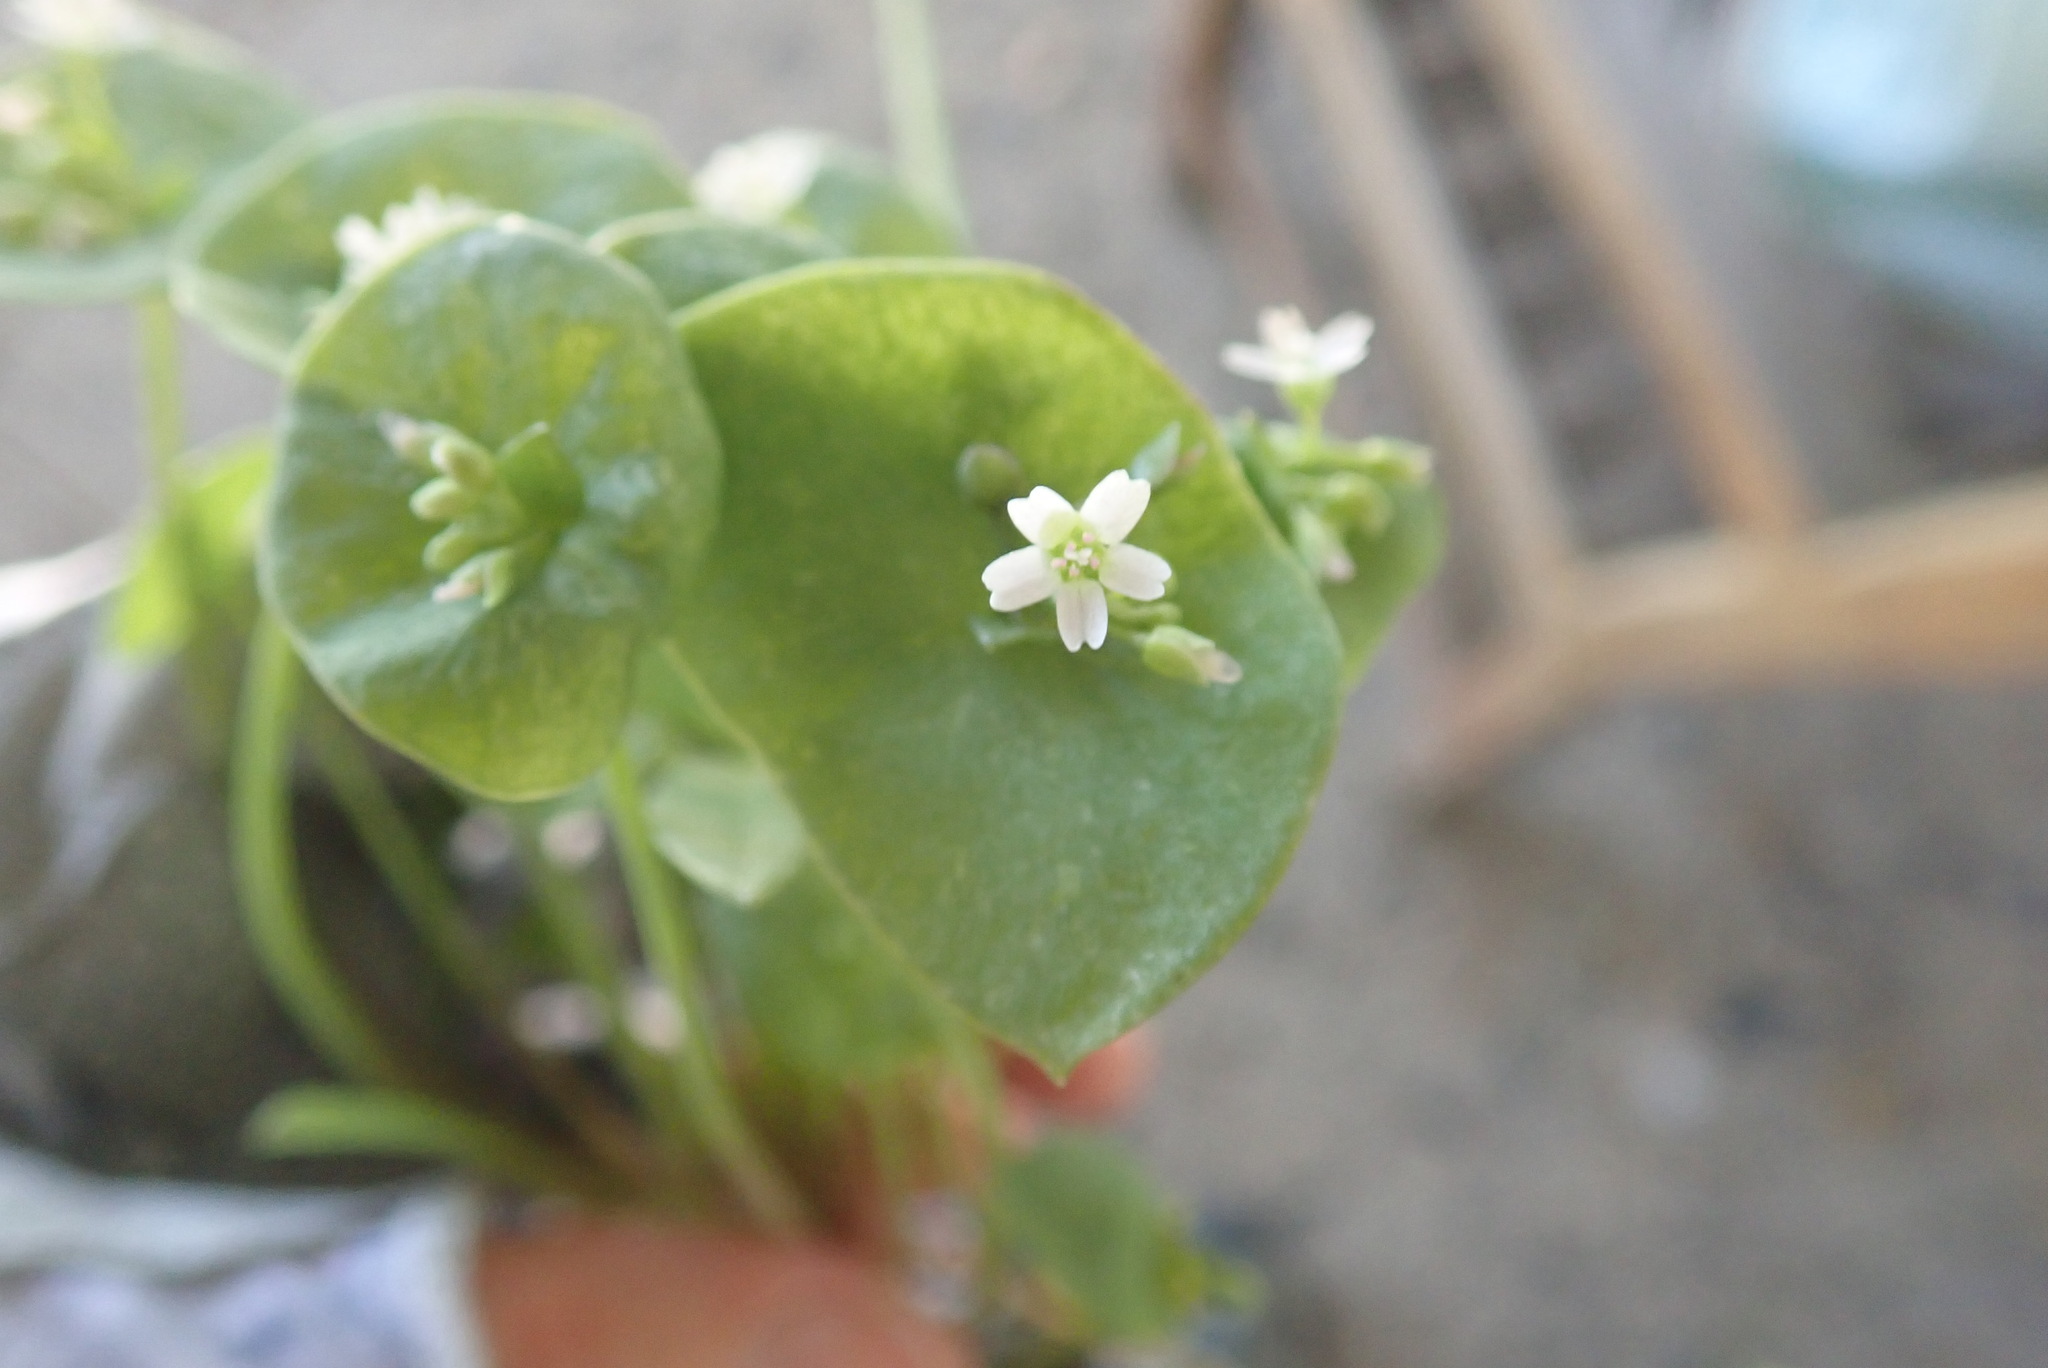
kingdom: Plantae
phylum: Tracheophyta
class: Magnoliopsida
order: Caryophyllales
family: Montiaceae
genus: Claytonia
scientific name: Claytonia parviflora
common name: Indian-lettuce
